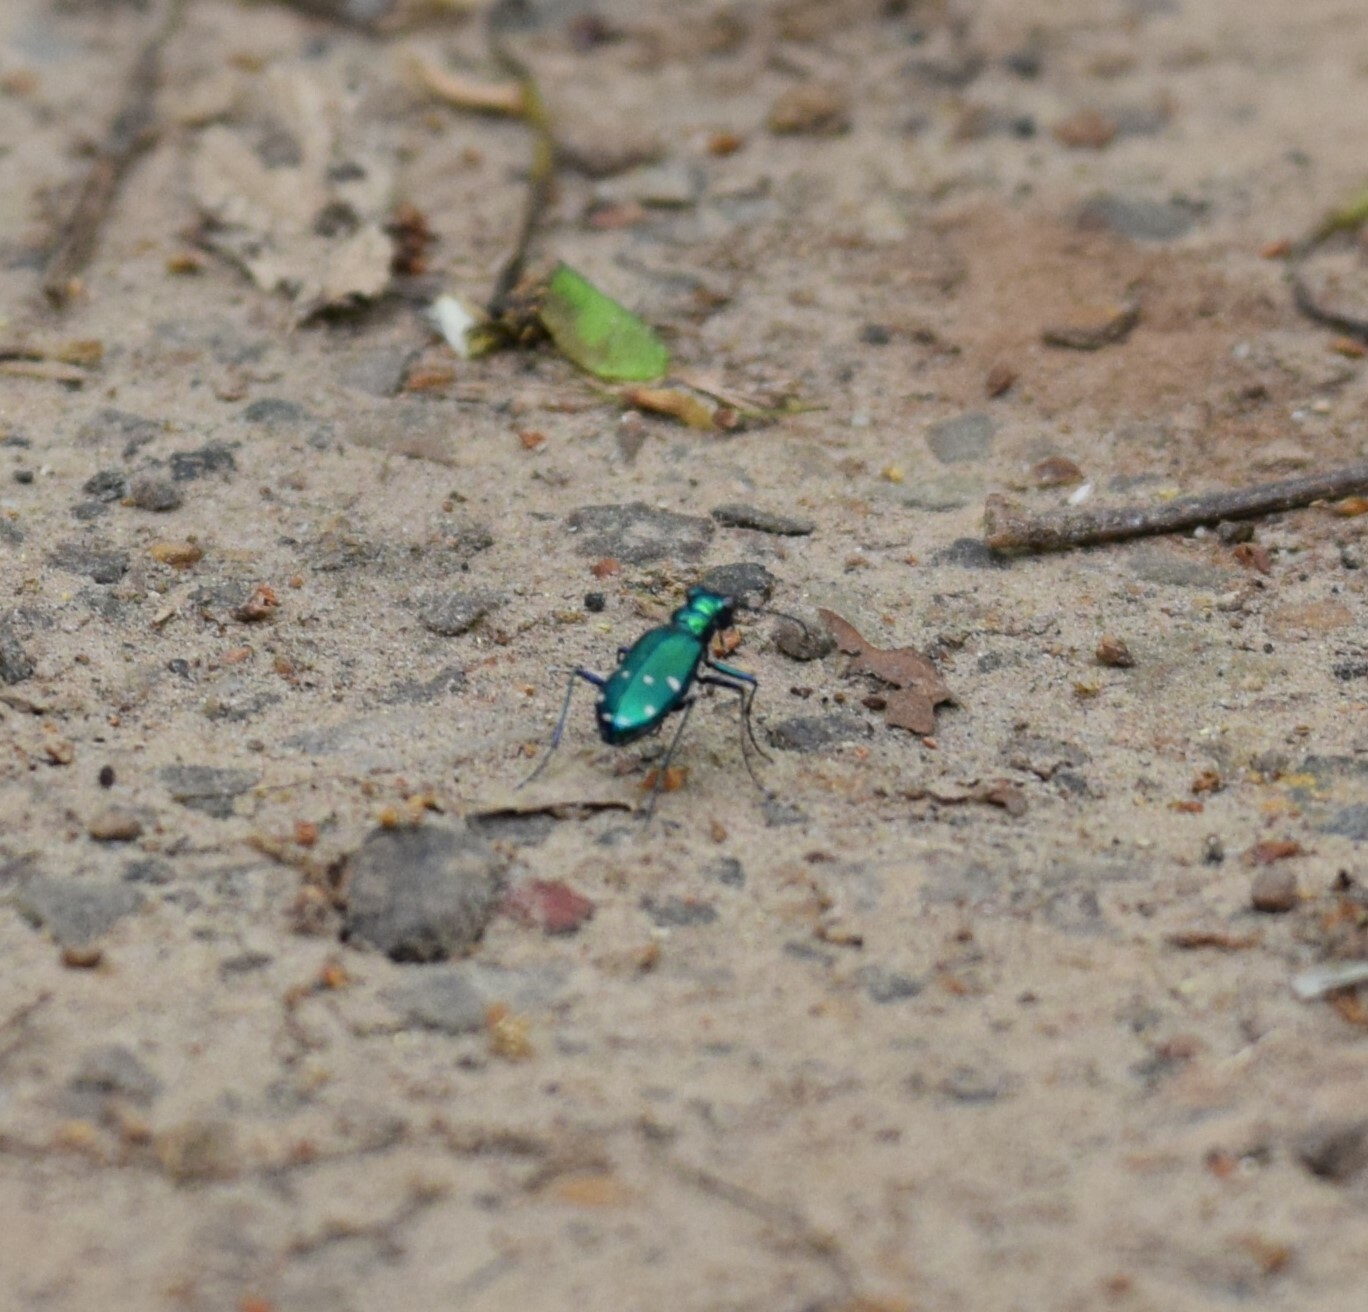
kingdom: Animalia
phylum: Arthropoda
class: Insecta
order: Coleoptera
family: Carabidae
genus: Cicindela
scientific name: Cicindela sexguttata
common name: Six-spotted tiger beetle
